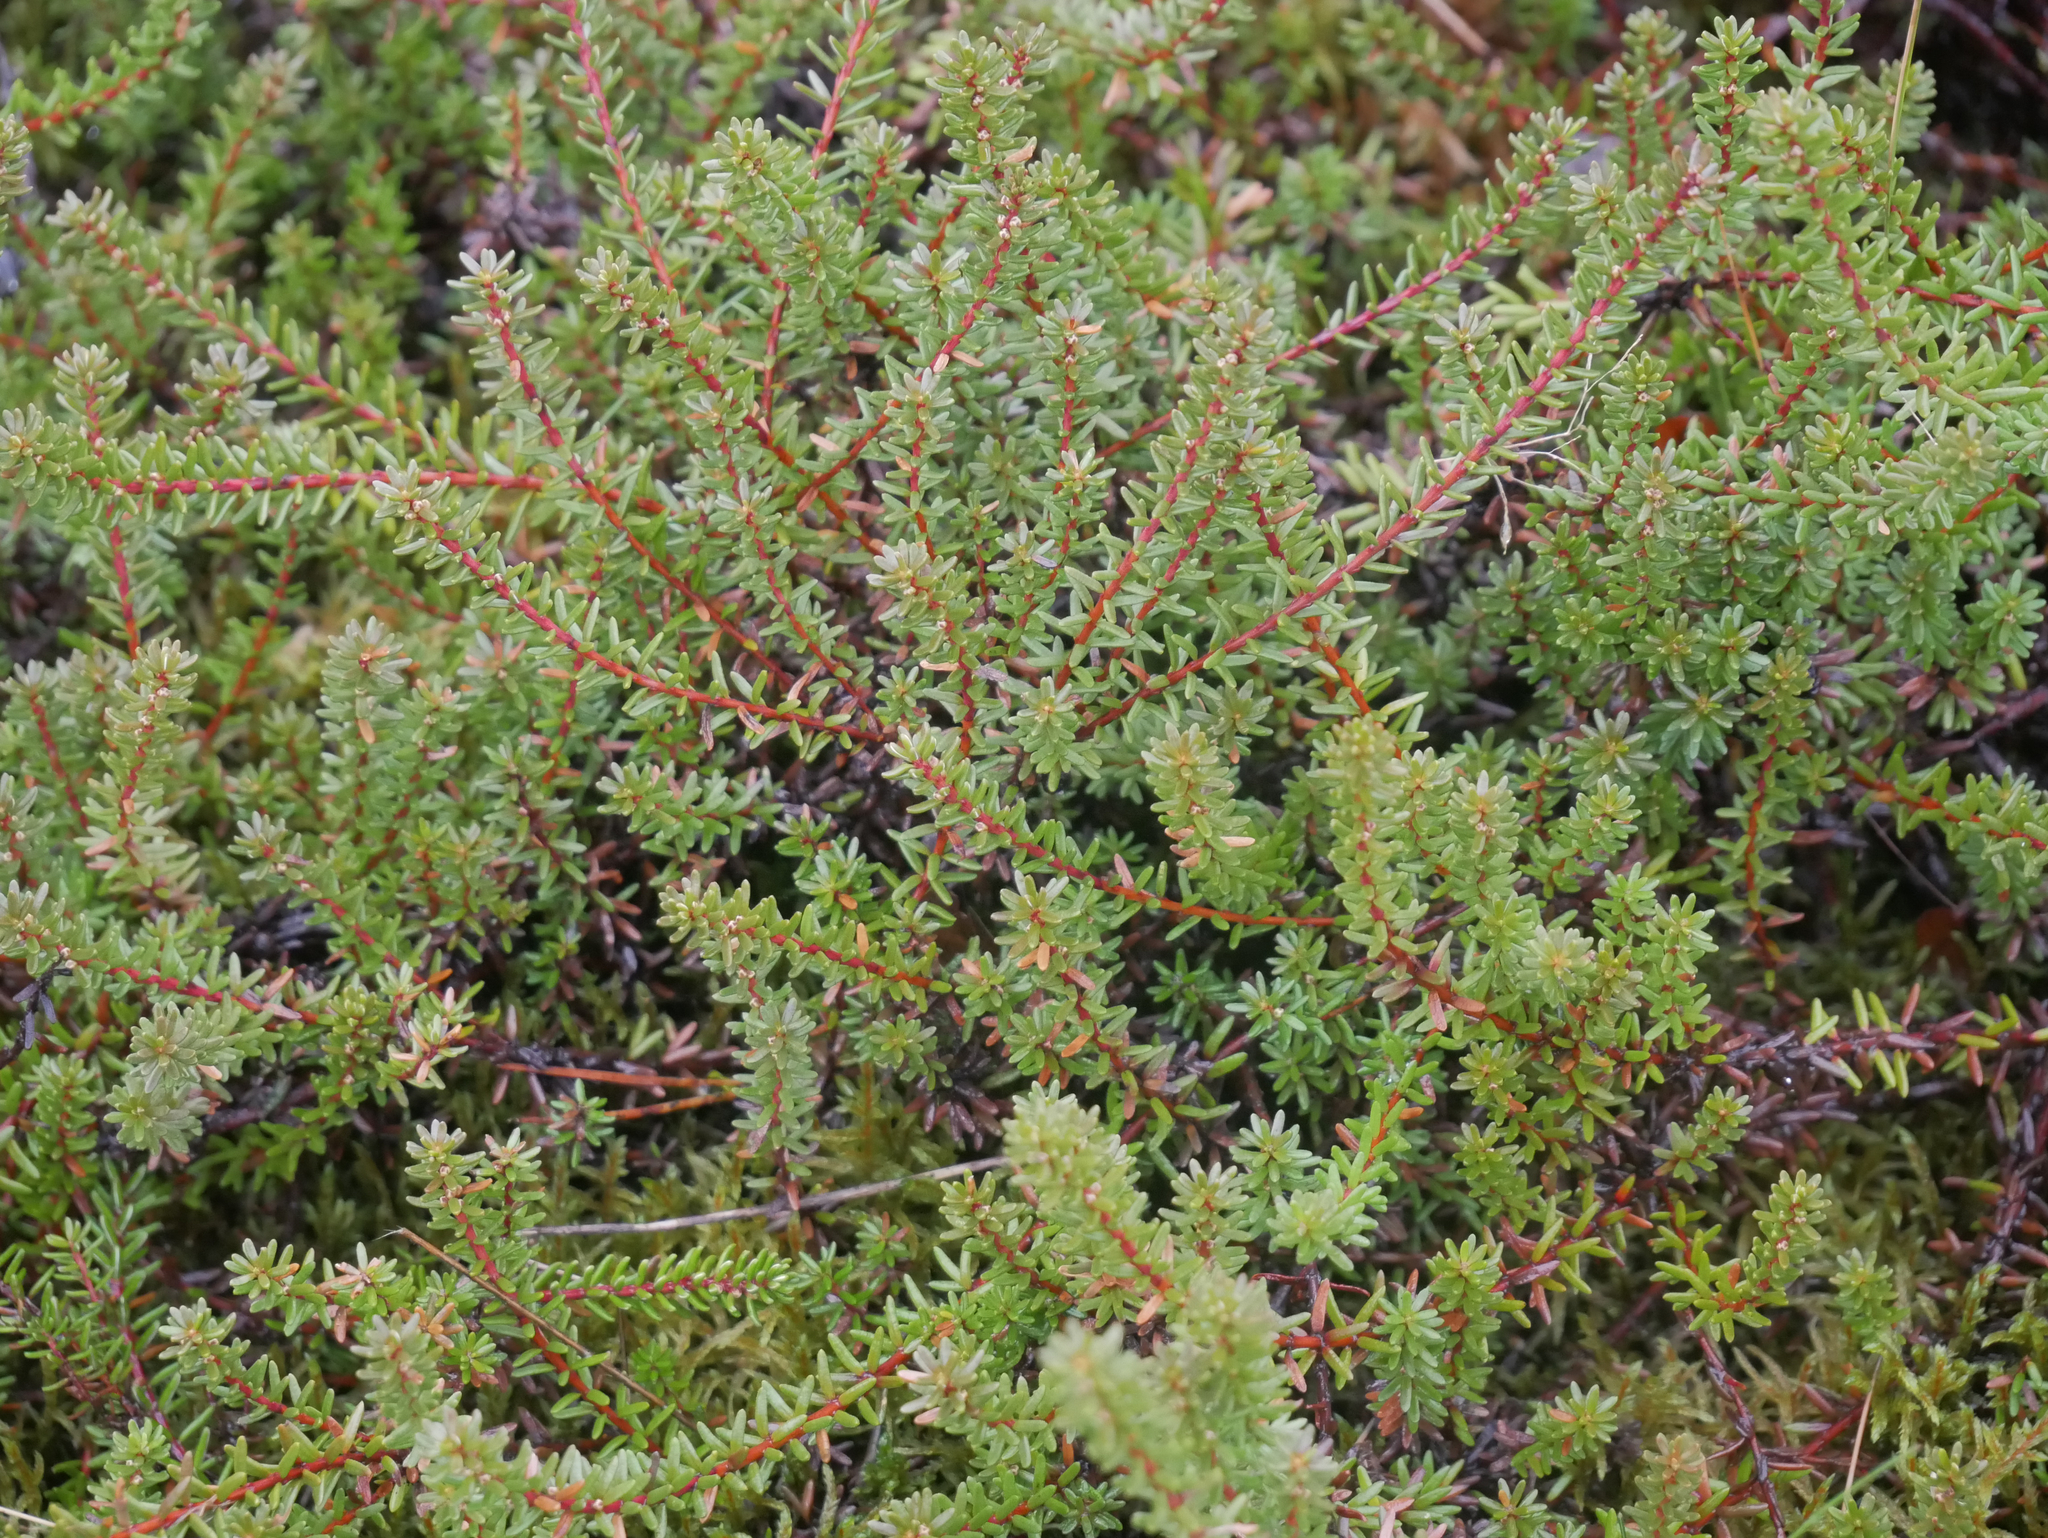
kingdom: Plantae
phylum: Tracheophyta
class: Magnoliopsida
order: Ericales
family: Ericaceae
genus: Empetrum
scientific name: Empetrum nigrum
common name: Black crowberry
